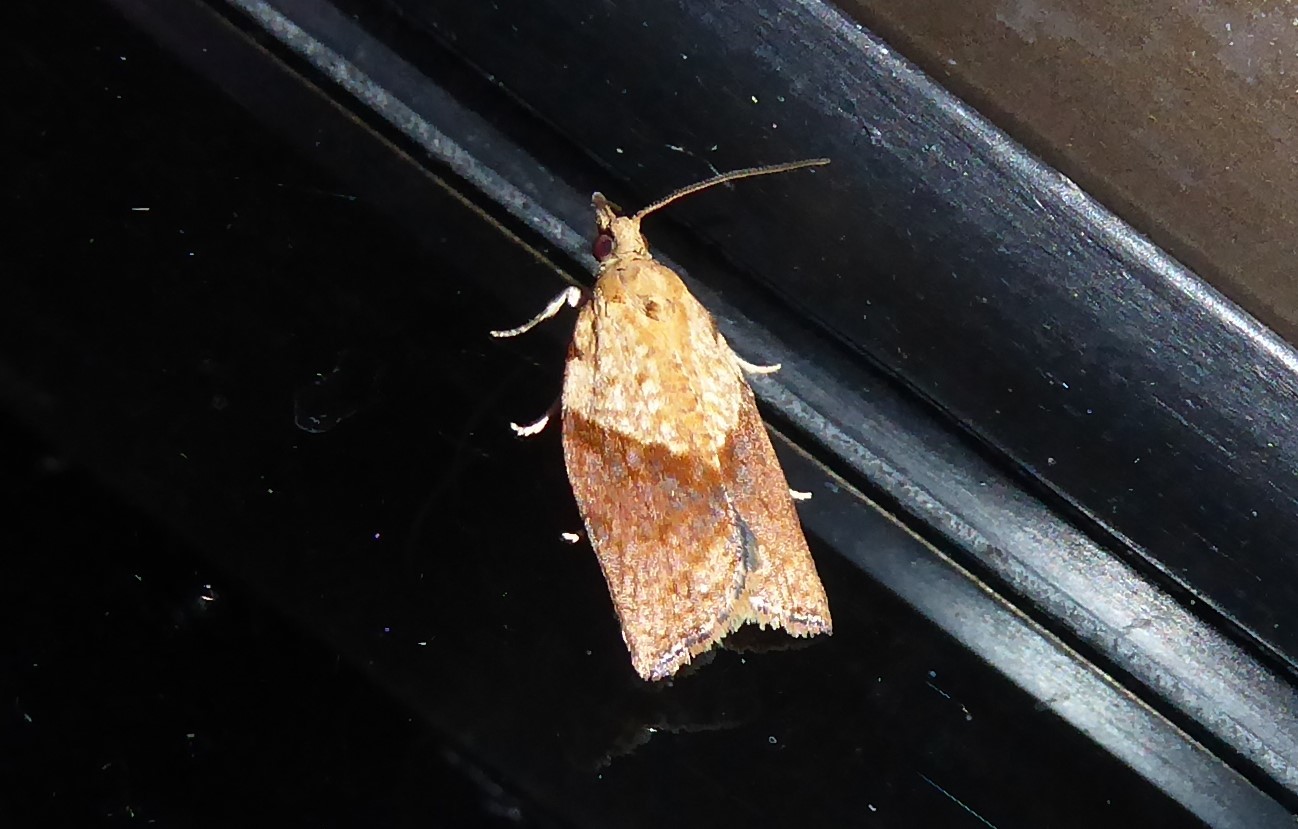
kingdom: Animalia
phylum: Arthropoda
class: Insecta
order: Lepidoptera
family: Tortricidae
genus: Epiphyas
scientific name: Epiphyas postvittana
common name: Light brown apple moth
